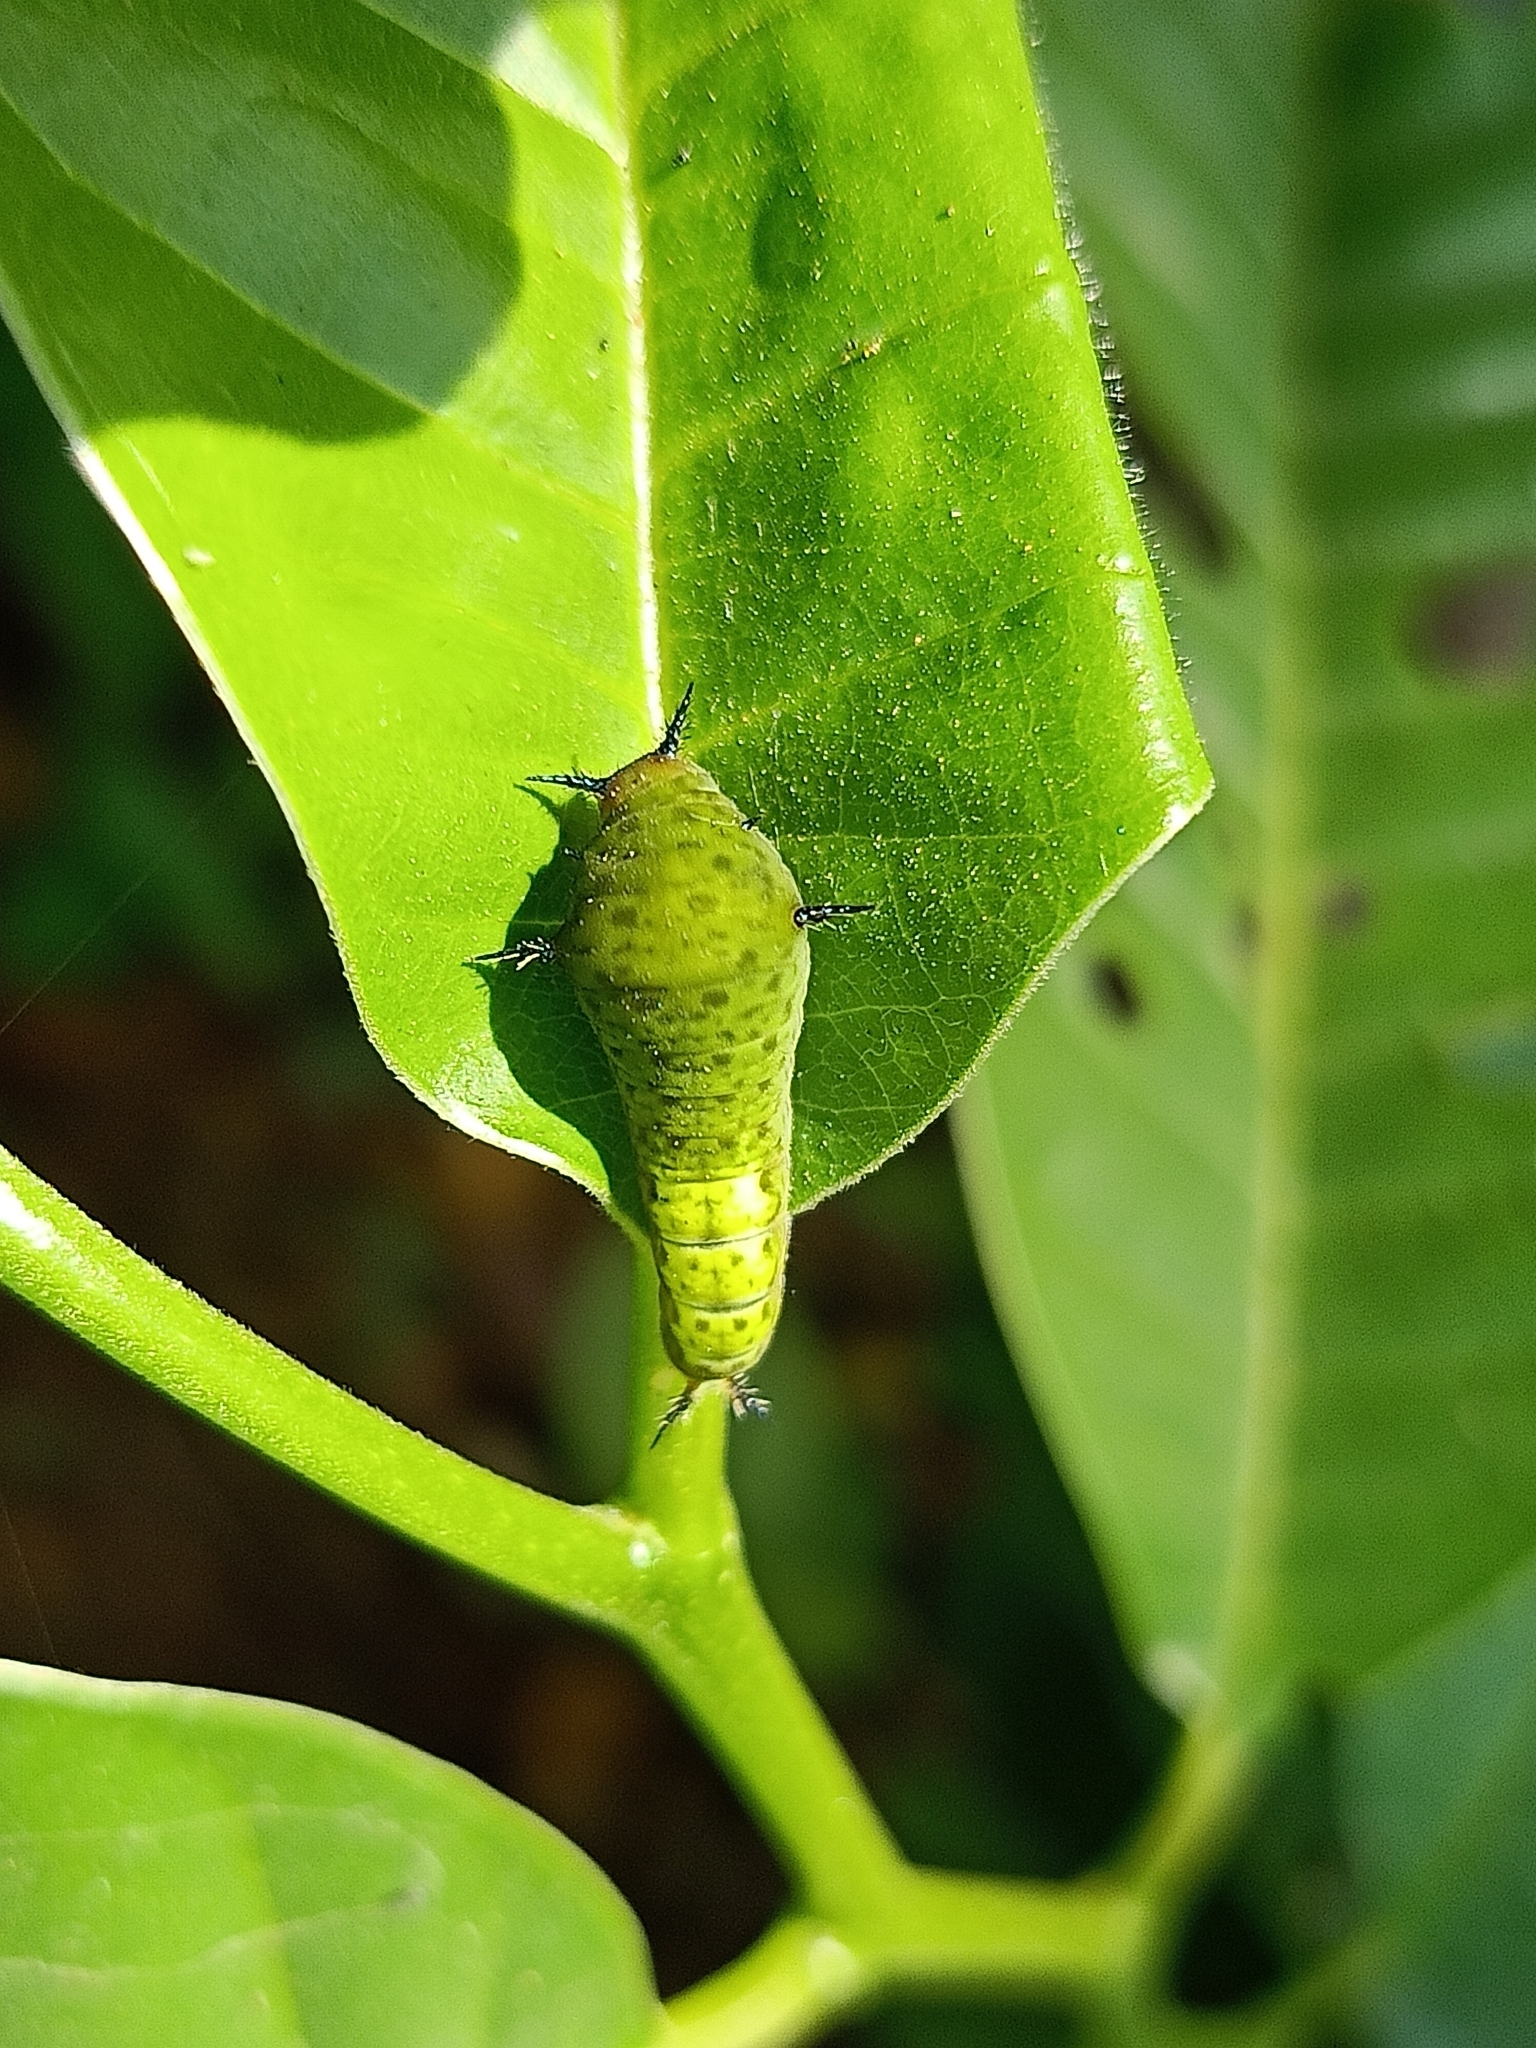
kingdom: Animalia
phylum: Arthropoda
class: Insecta
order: Lepidoptera
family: Papilionidae
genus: Graphium
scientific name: Graphium agamemnon
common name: Tailed jay
